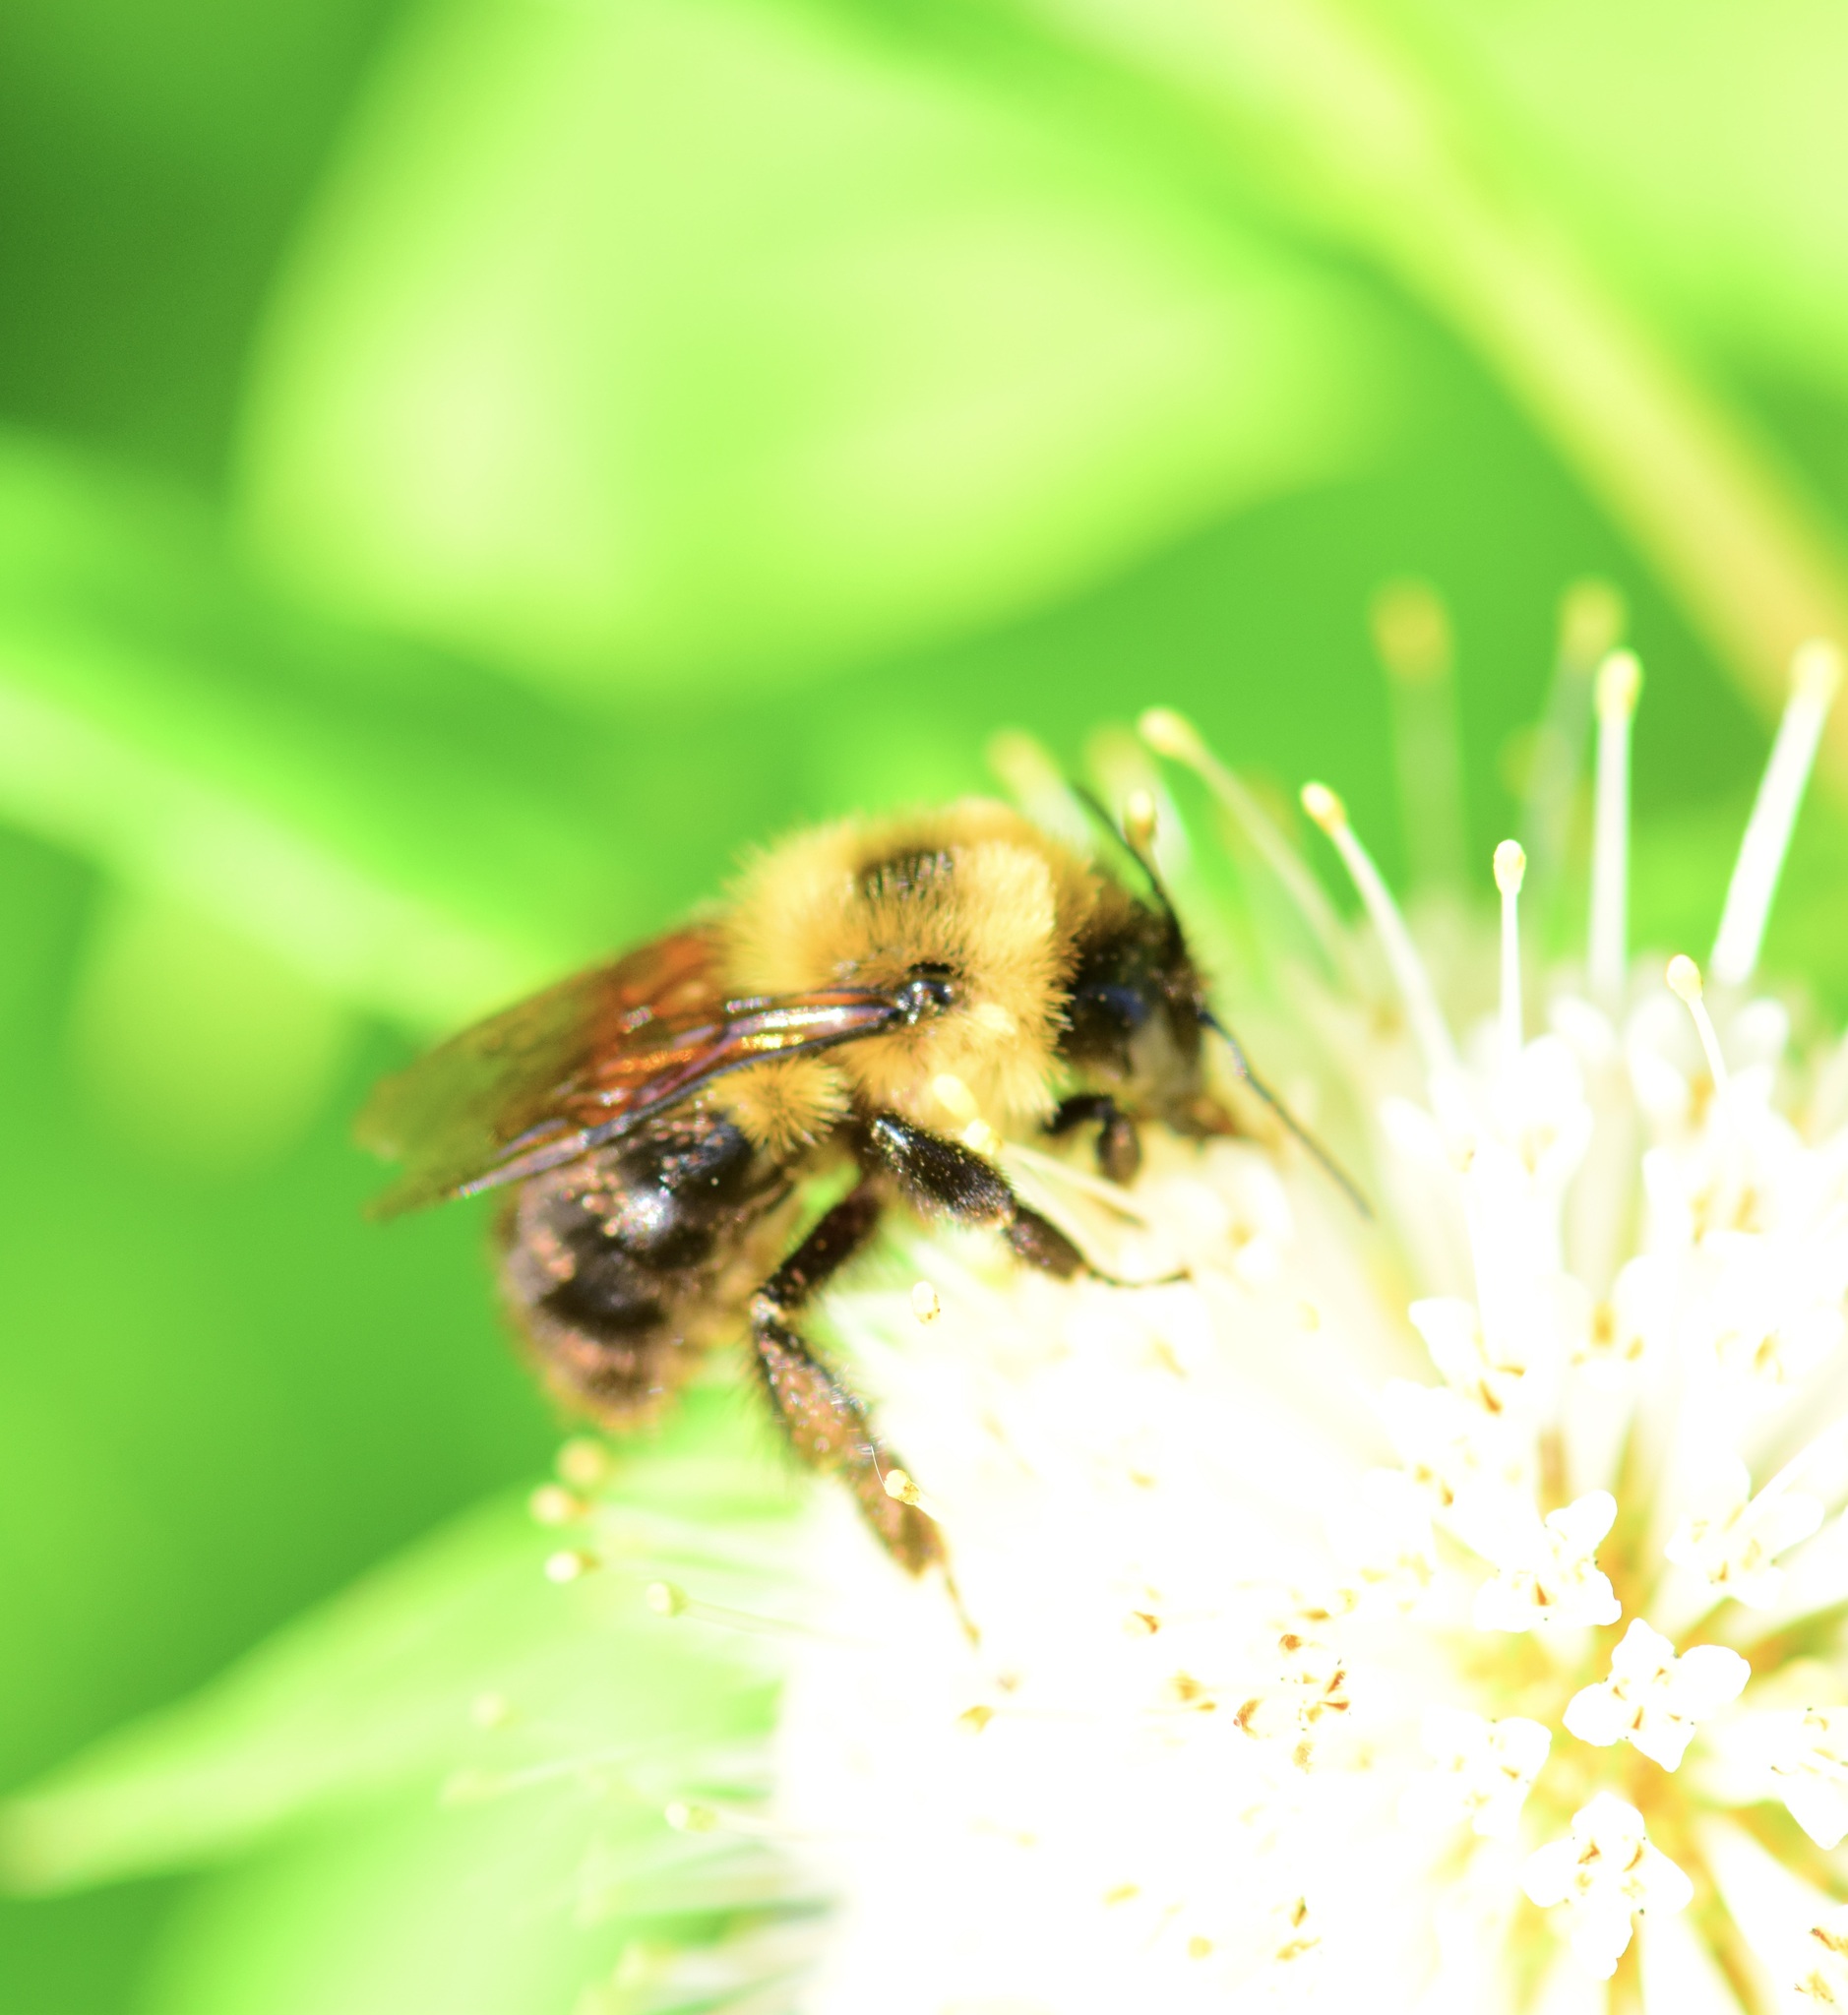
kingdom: Animalia
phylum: Arthropoda
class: Insecta
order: Hymenoptera
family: Apidae
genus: Bombus
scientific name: Bombus bimaculatus
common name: Two-spotted bumble bee
